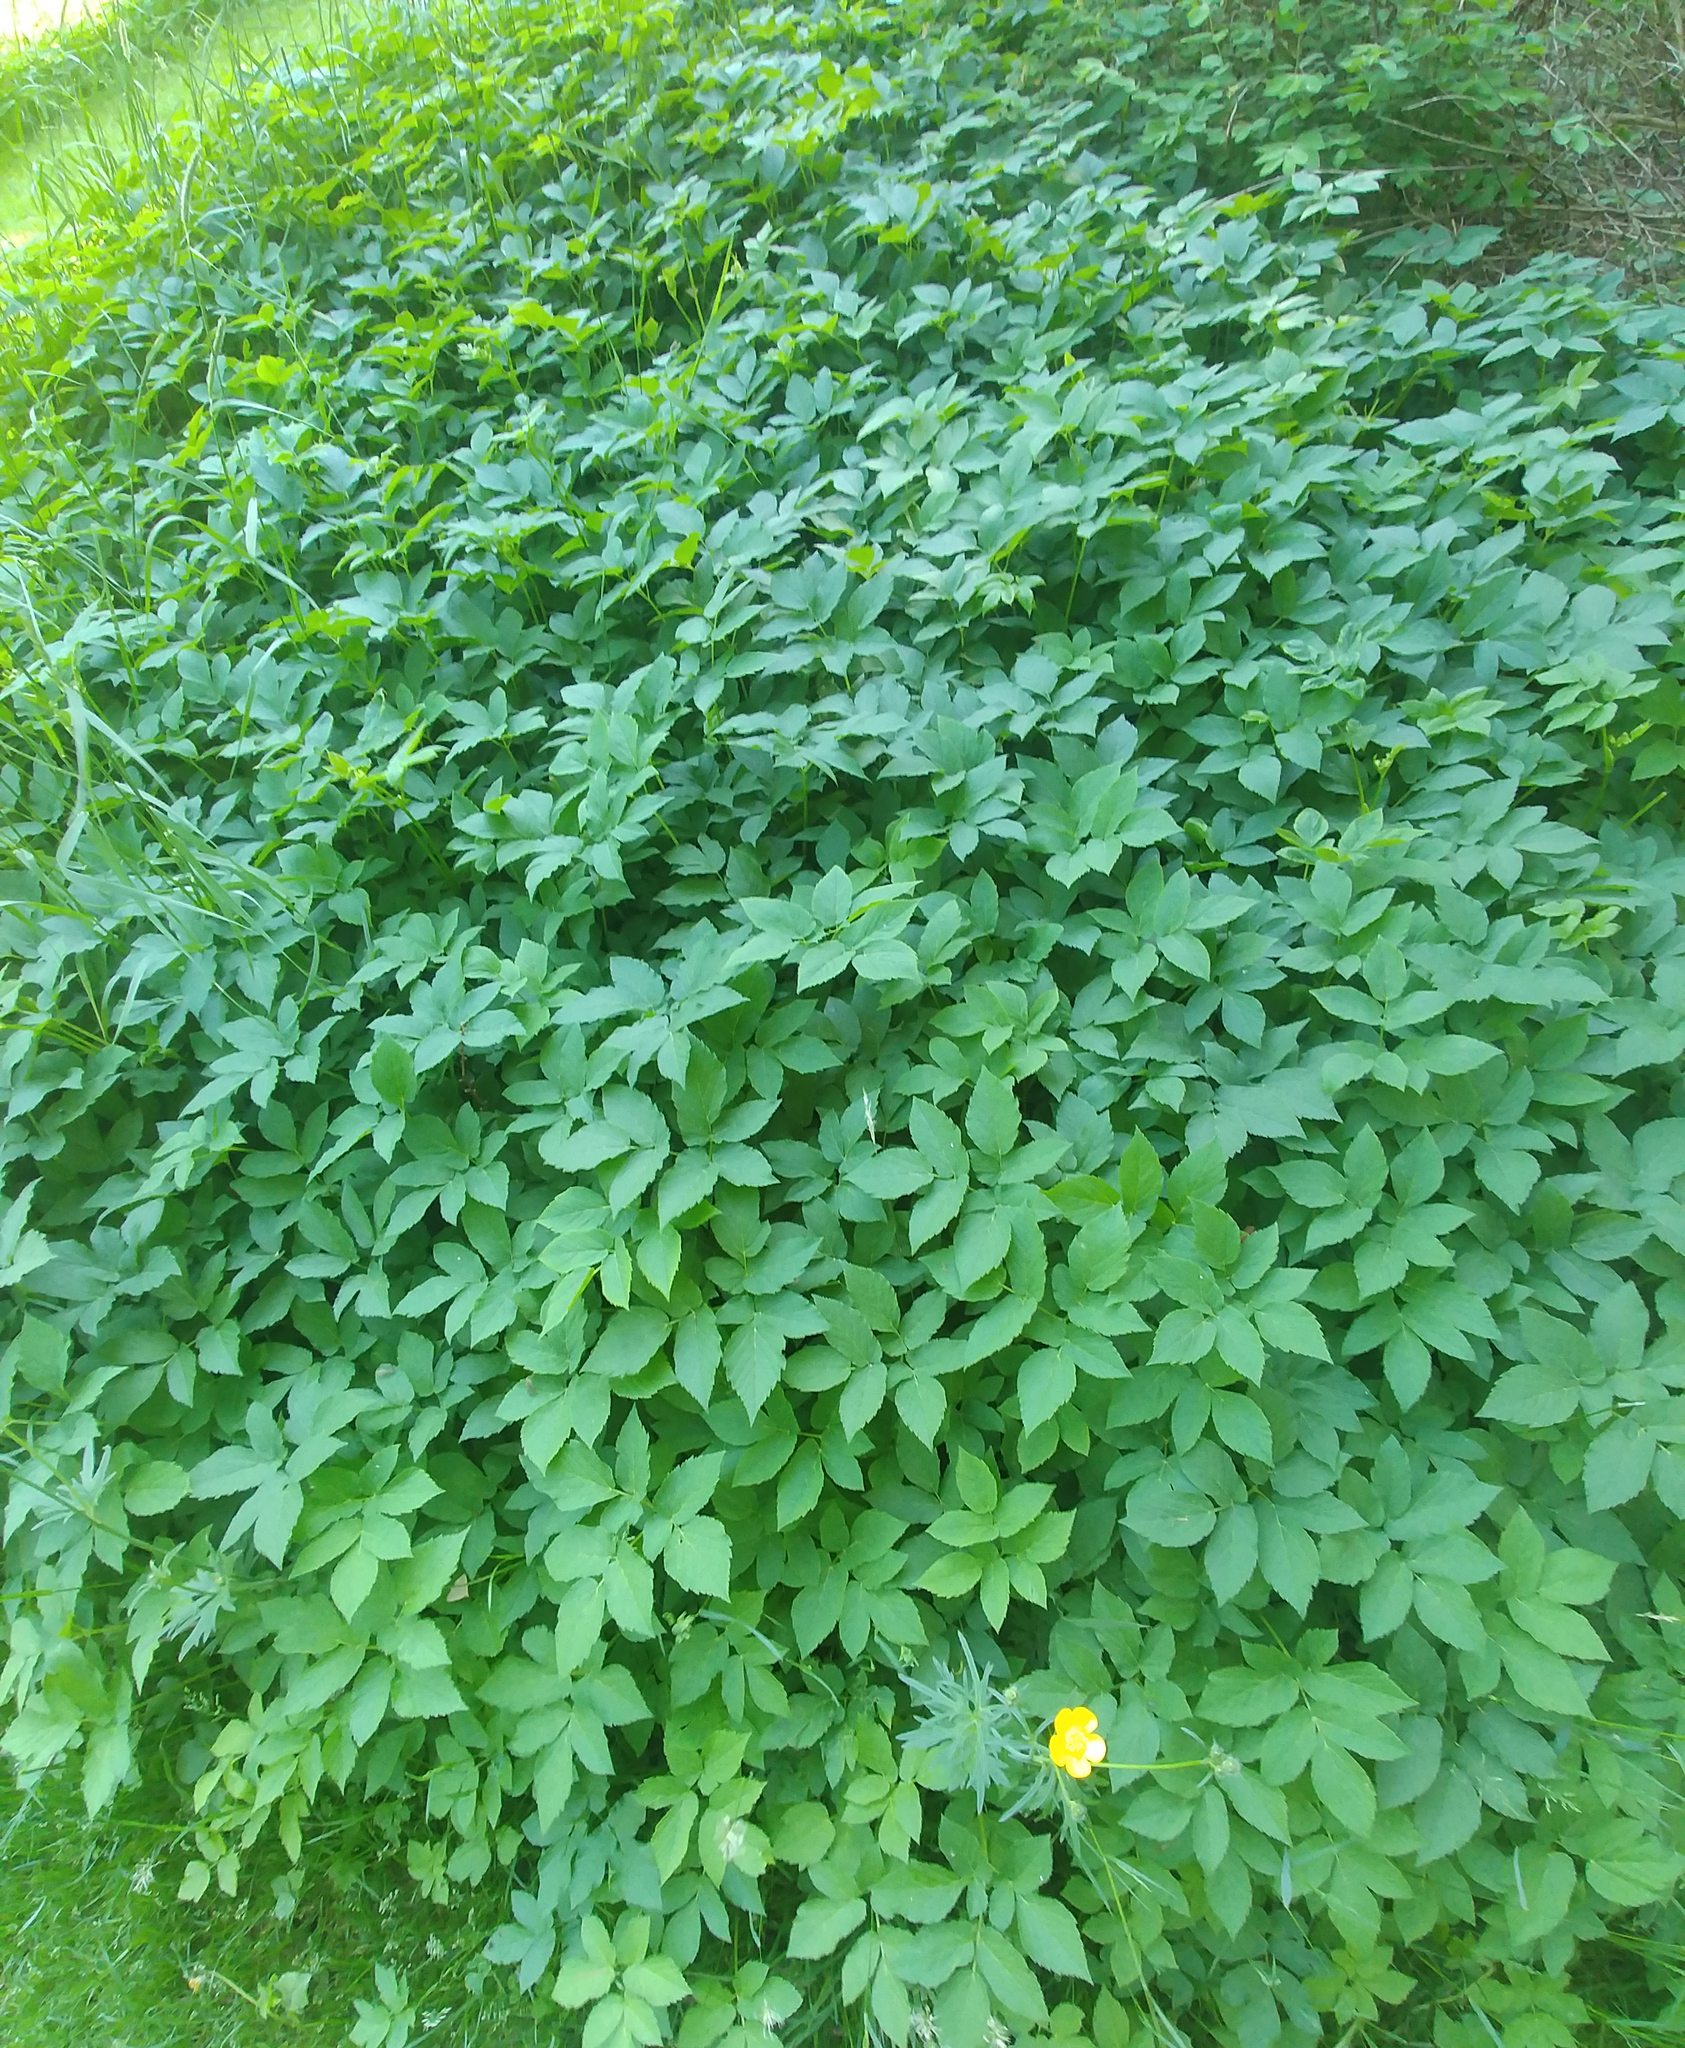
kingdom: Plantae
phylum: Tracheophyta
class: Magnoliopsida
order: Apiales
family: Apiaceae
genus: Aegopodium
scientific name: Aegopodium podagraria
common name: Ground-elder
